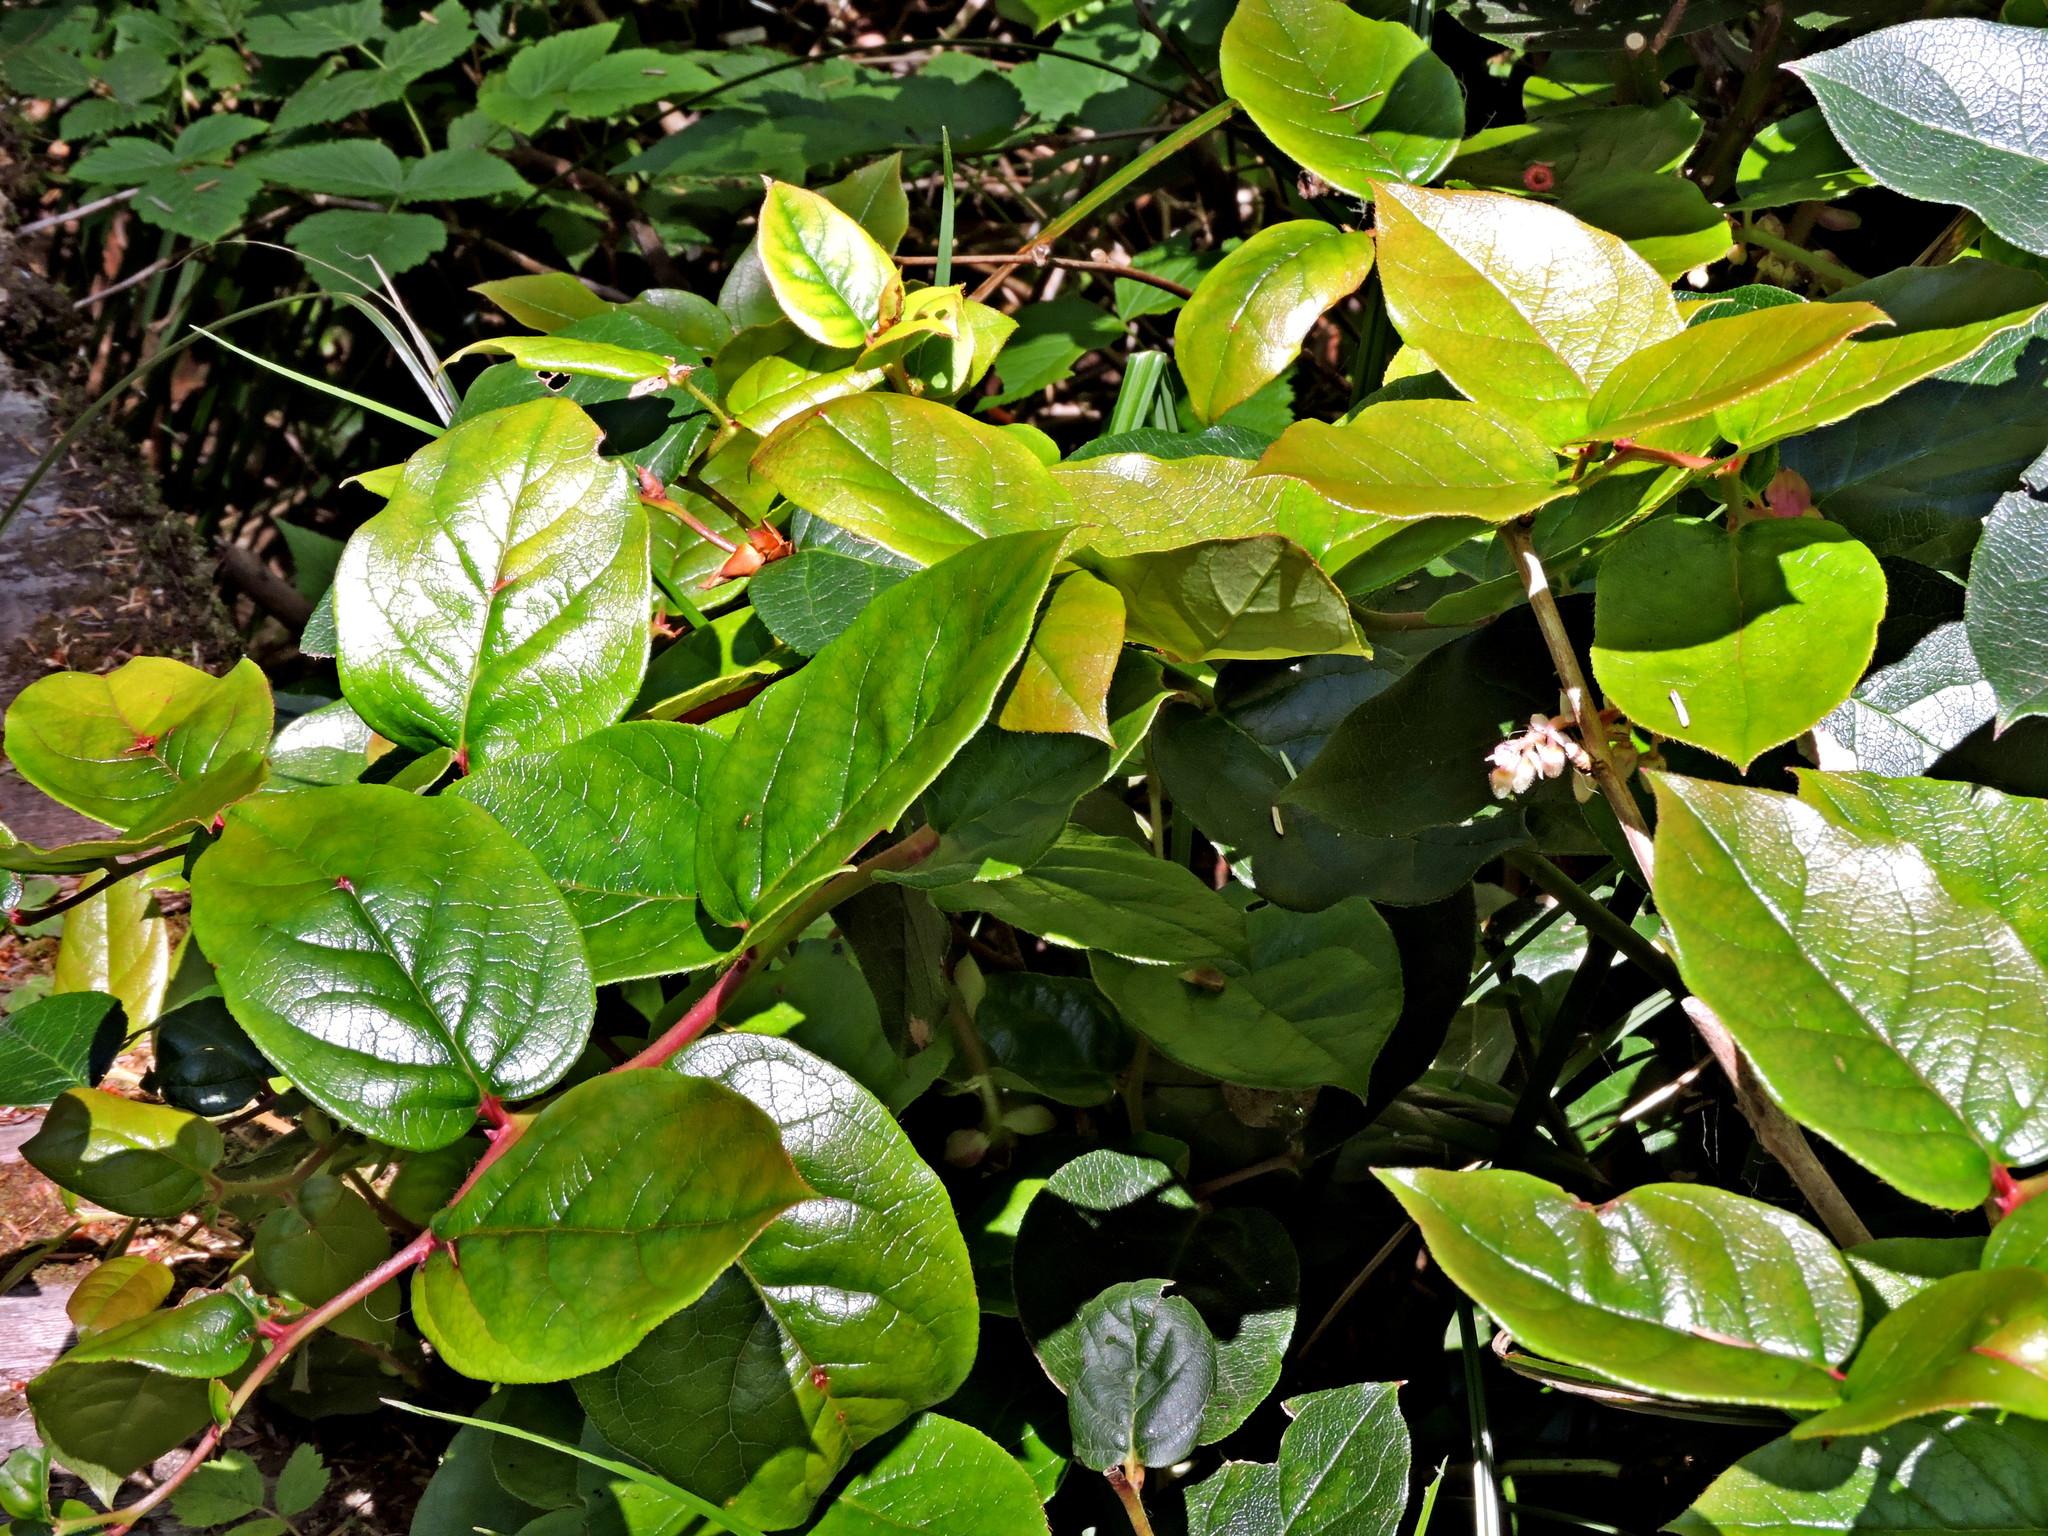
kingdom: Plantae
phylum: Tracheophyta
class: Magnoliopsida
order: Ericales
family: Ericaceae
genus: Gaultheria
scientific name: Gaultheria shallon
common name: Shallon
